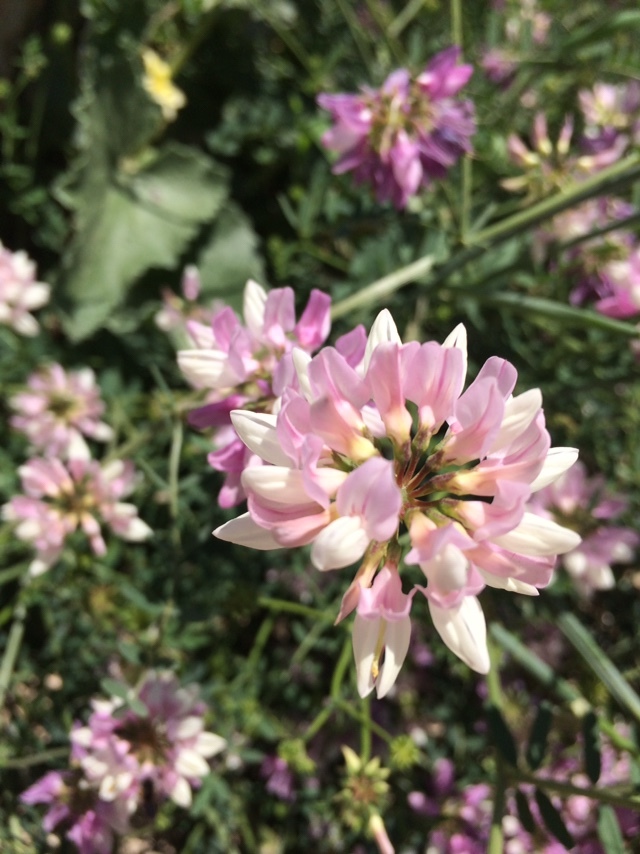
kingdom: Plantae
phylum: Tracheophyta
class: Magnoliopsida
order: Fabales
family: Fabaceae
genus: Coronilla
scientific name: Coronilla varia
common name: Crownvetch
